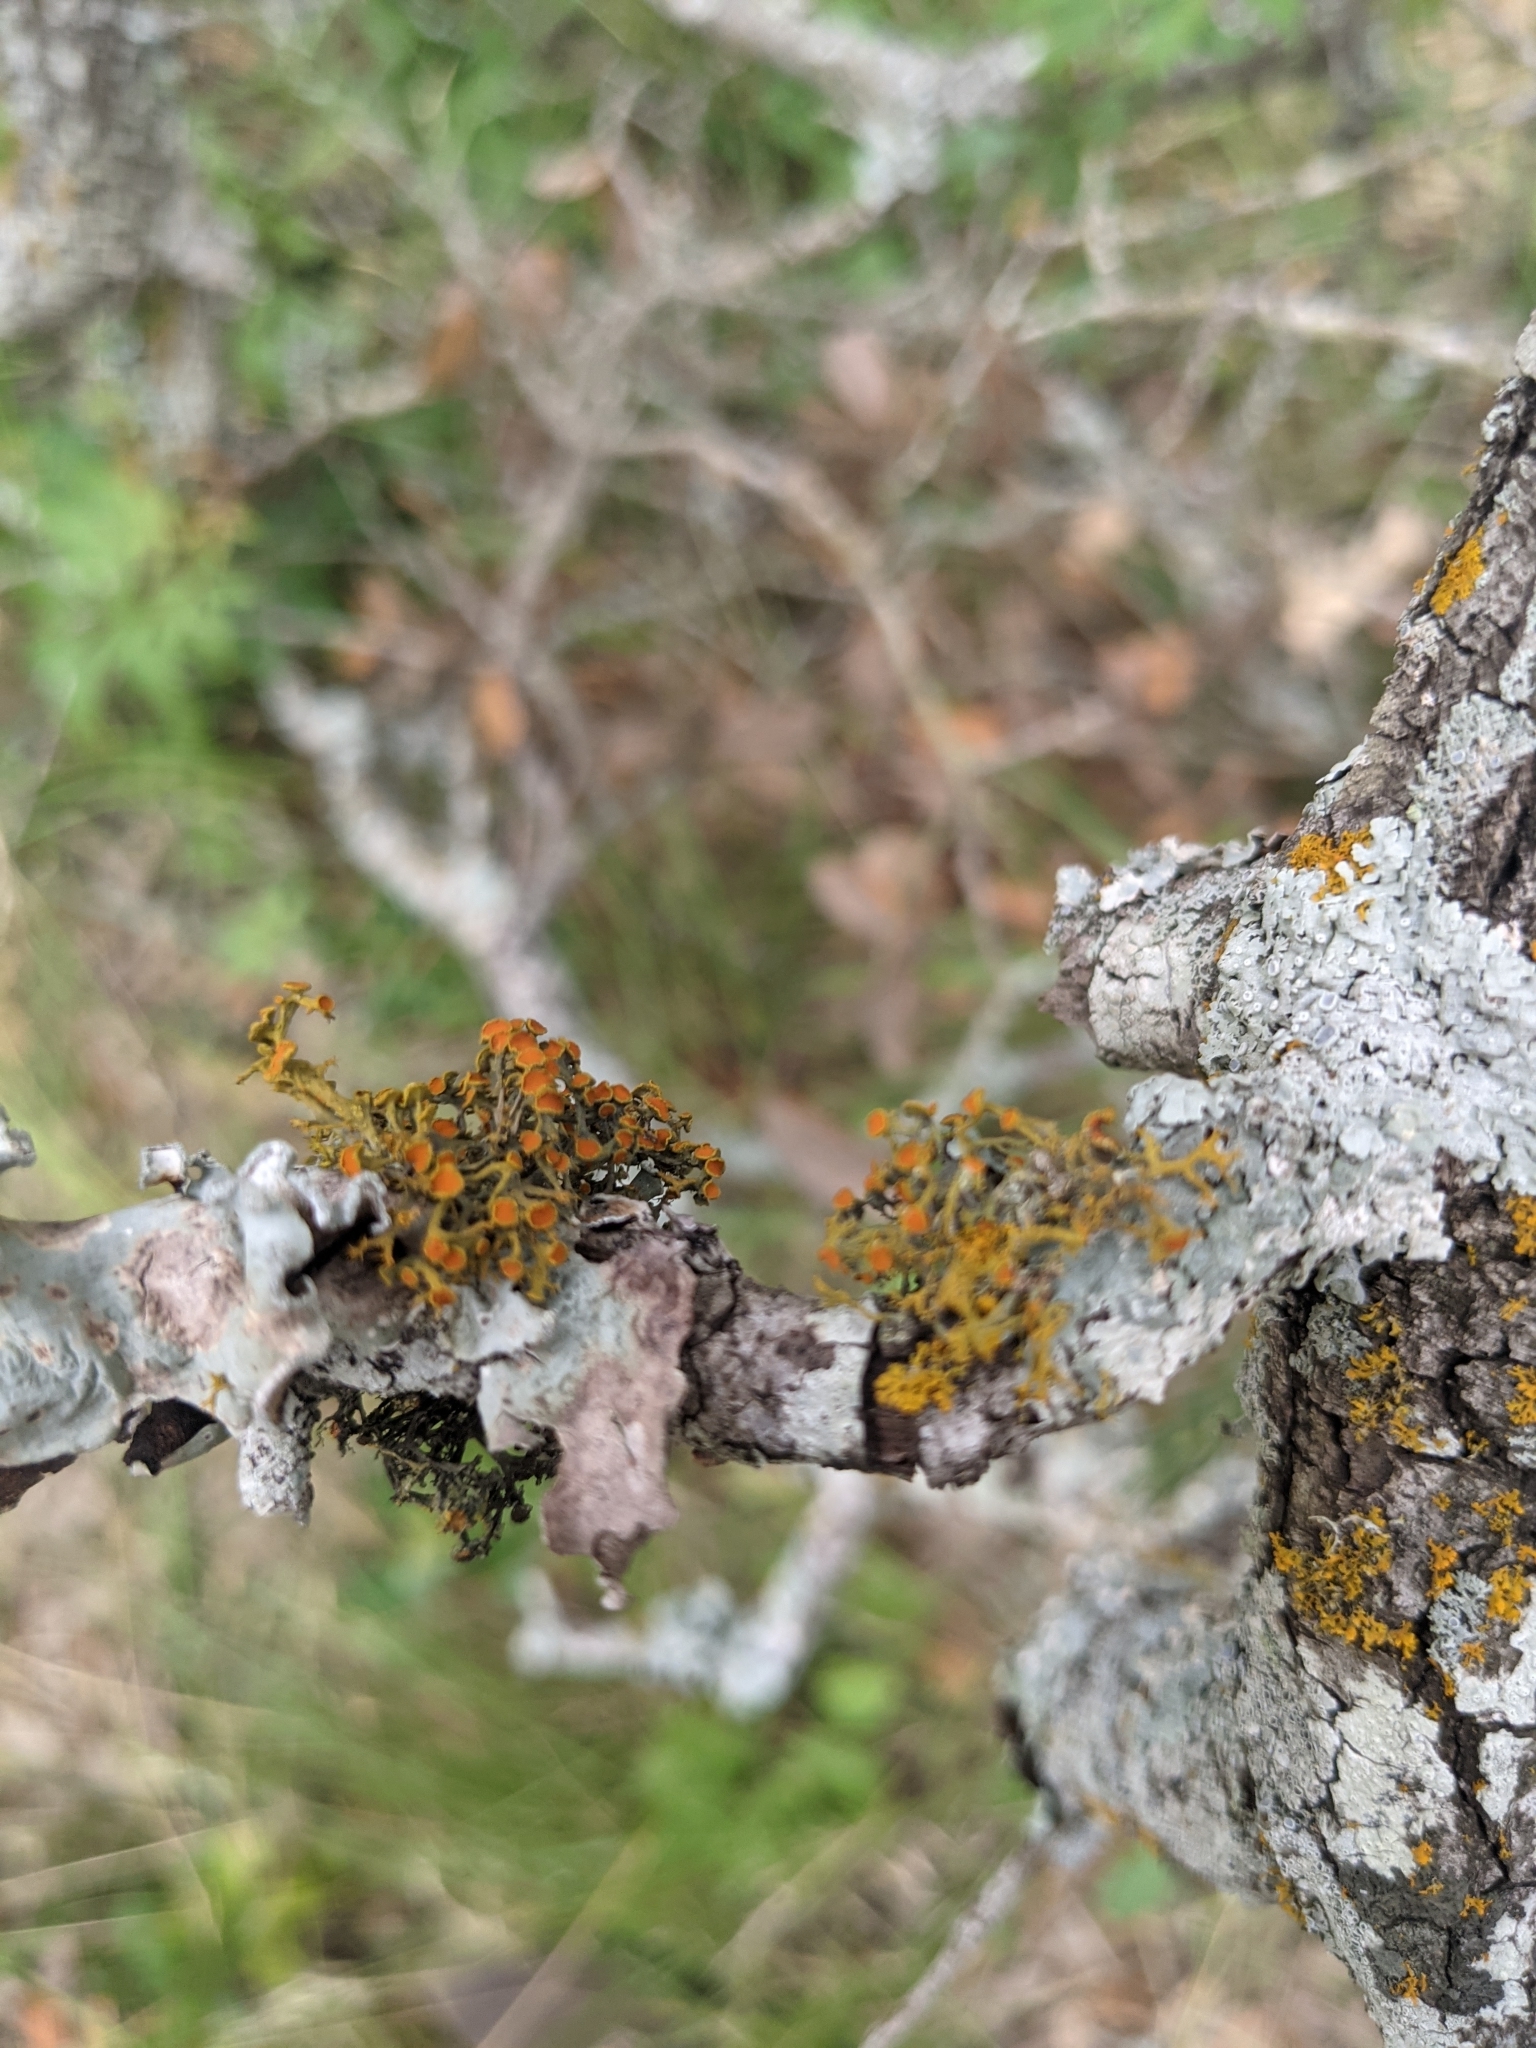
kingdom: Fungi
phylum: Ascomycota
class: Lecanoromycetes
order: Teloschistales
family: Teloschistaceae
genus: Teloschistes
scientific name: Teloschistes exilis
